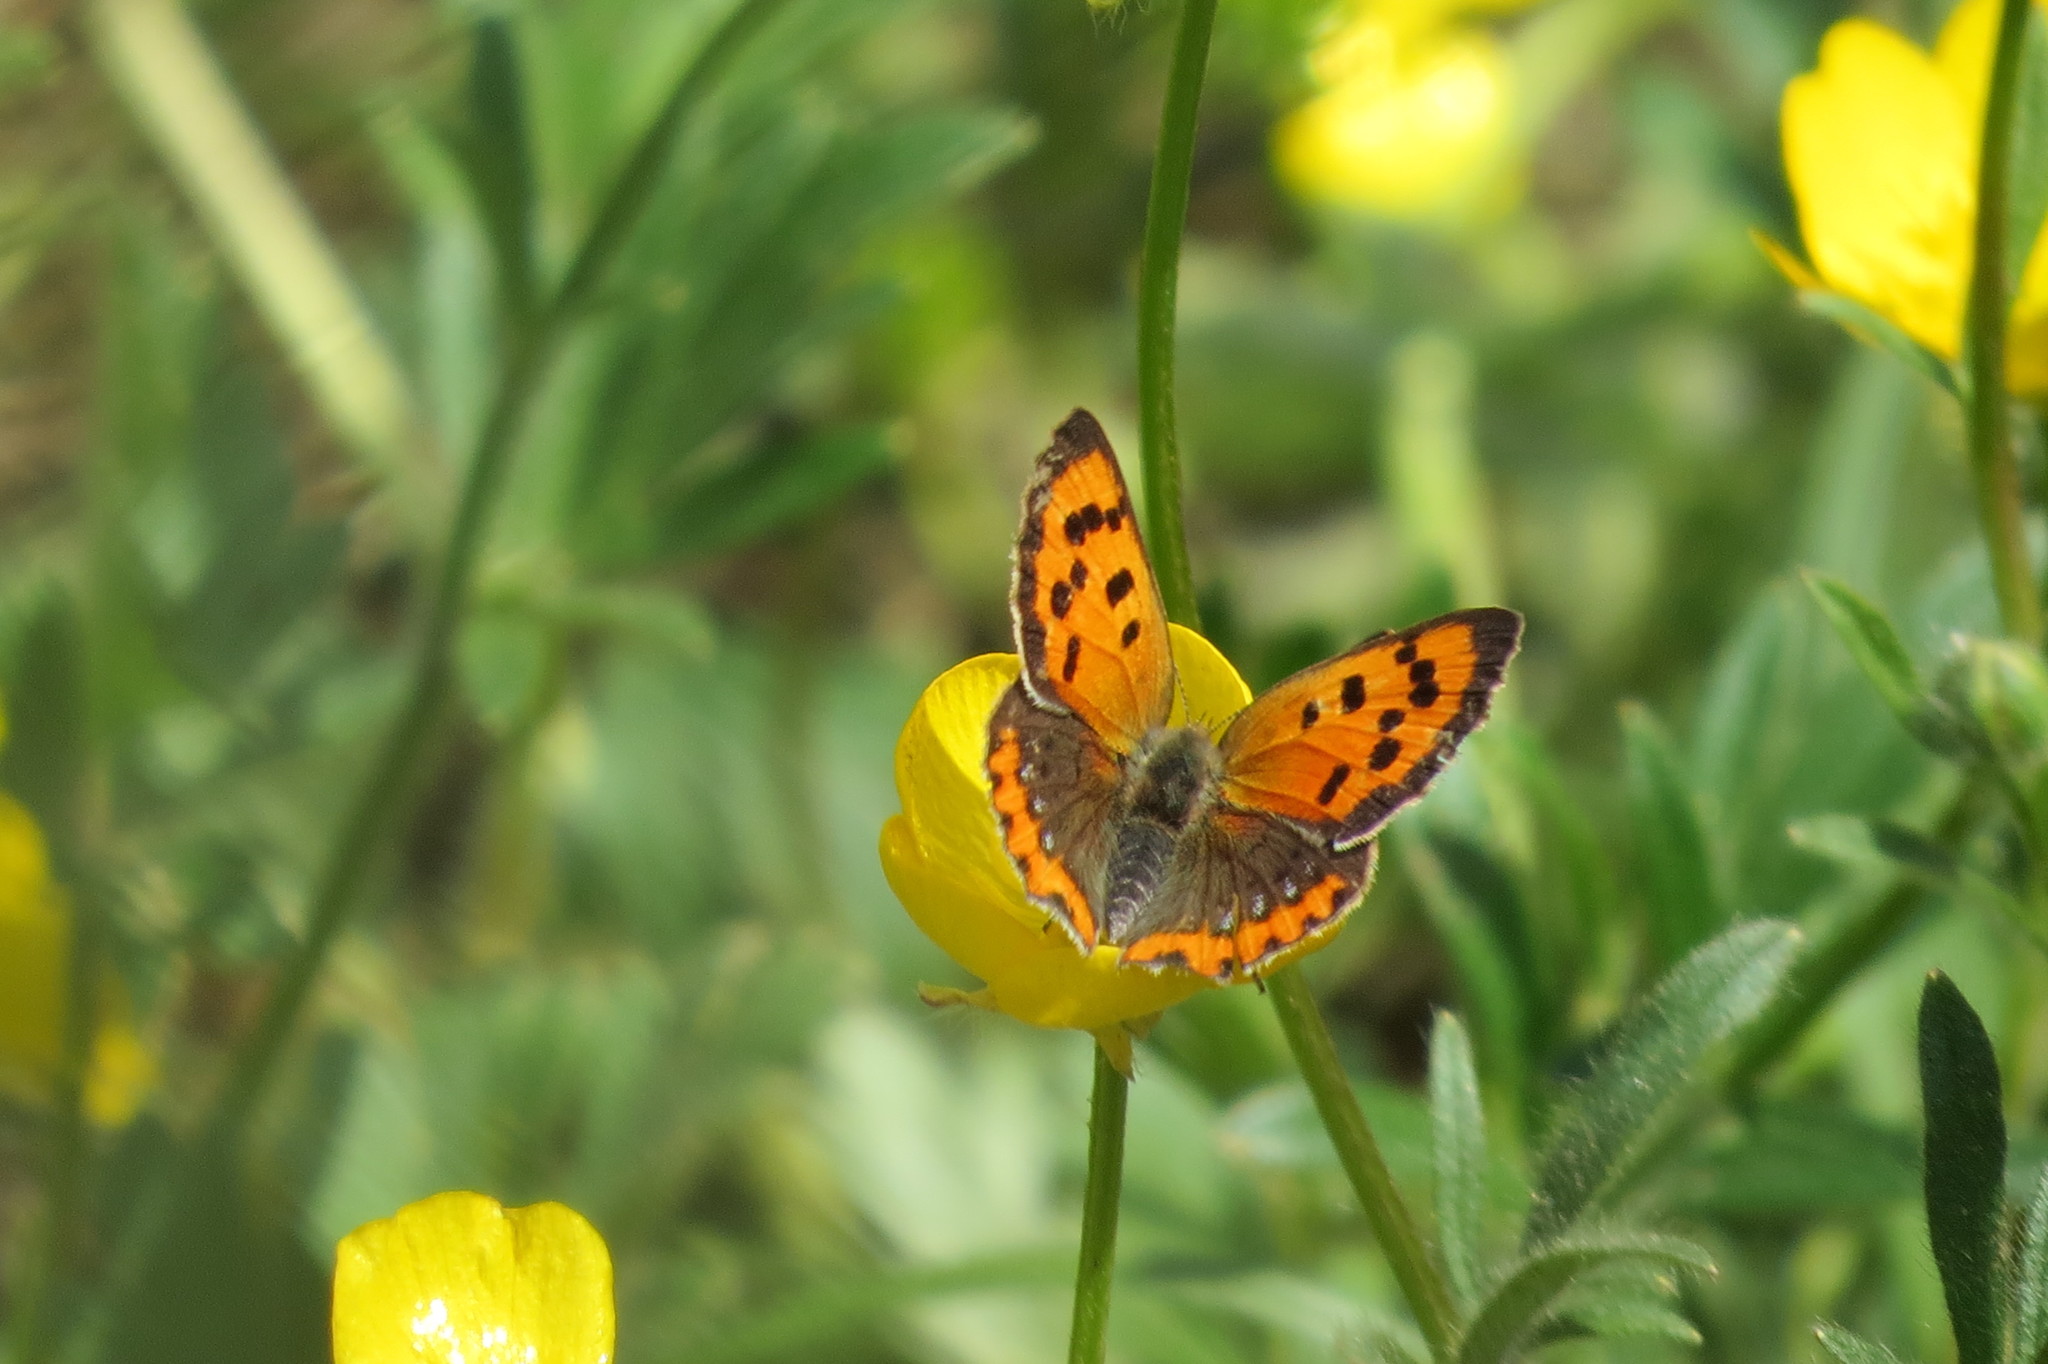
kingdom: Animalia
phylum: Arthropoda
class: Insecta
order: Lepidoptera
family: Lycaenidae
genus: Lycaena
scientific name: Lycaena phlaeas
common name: Small copper
